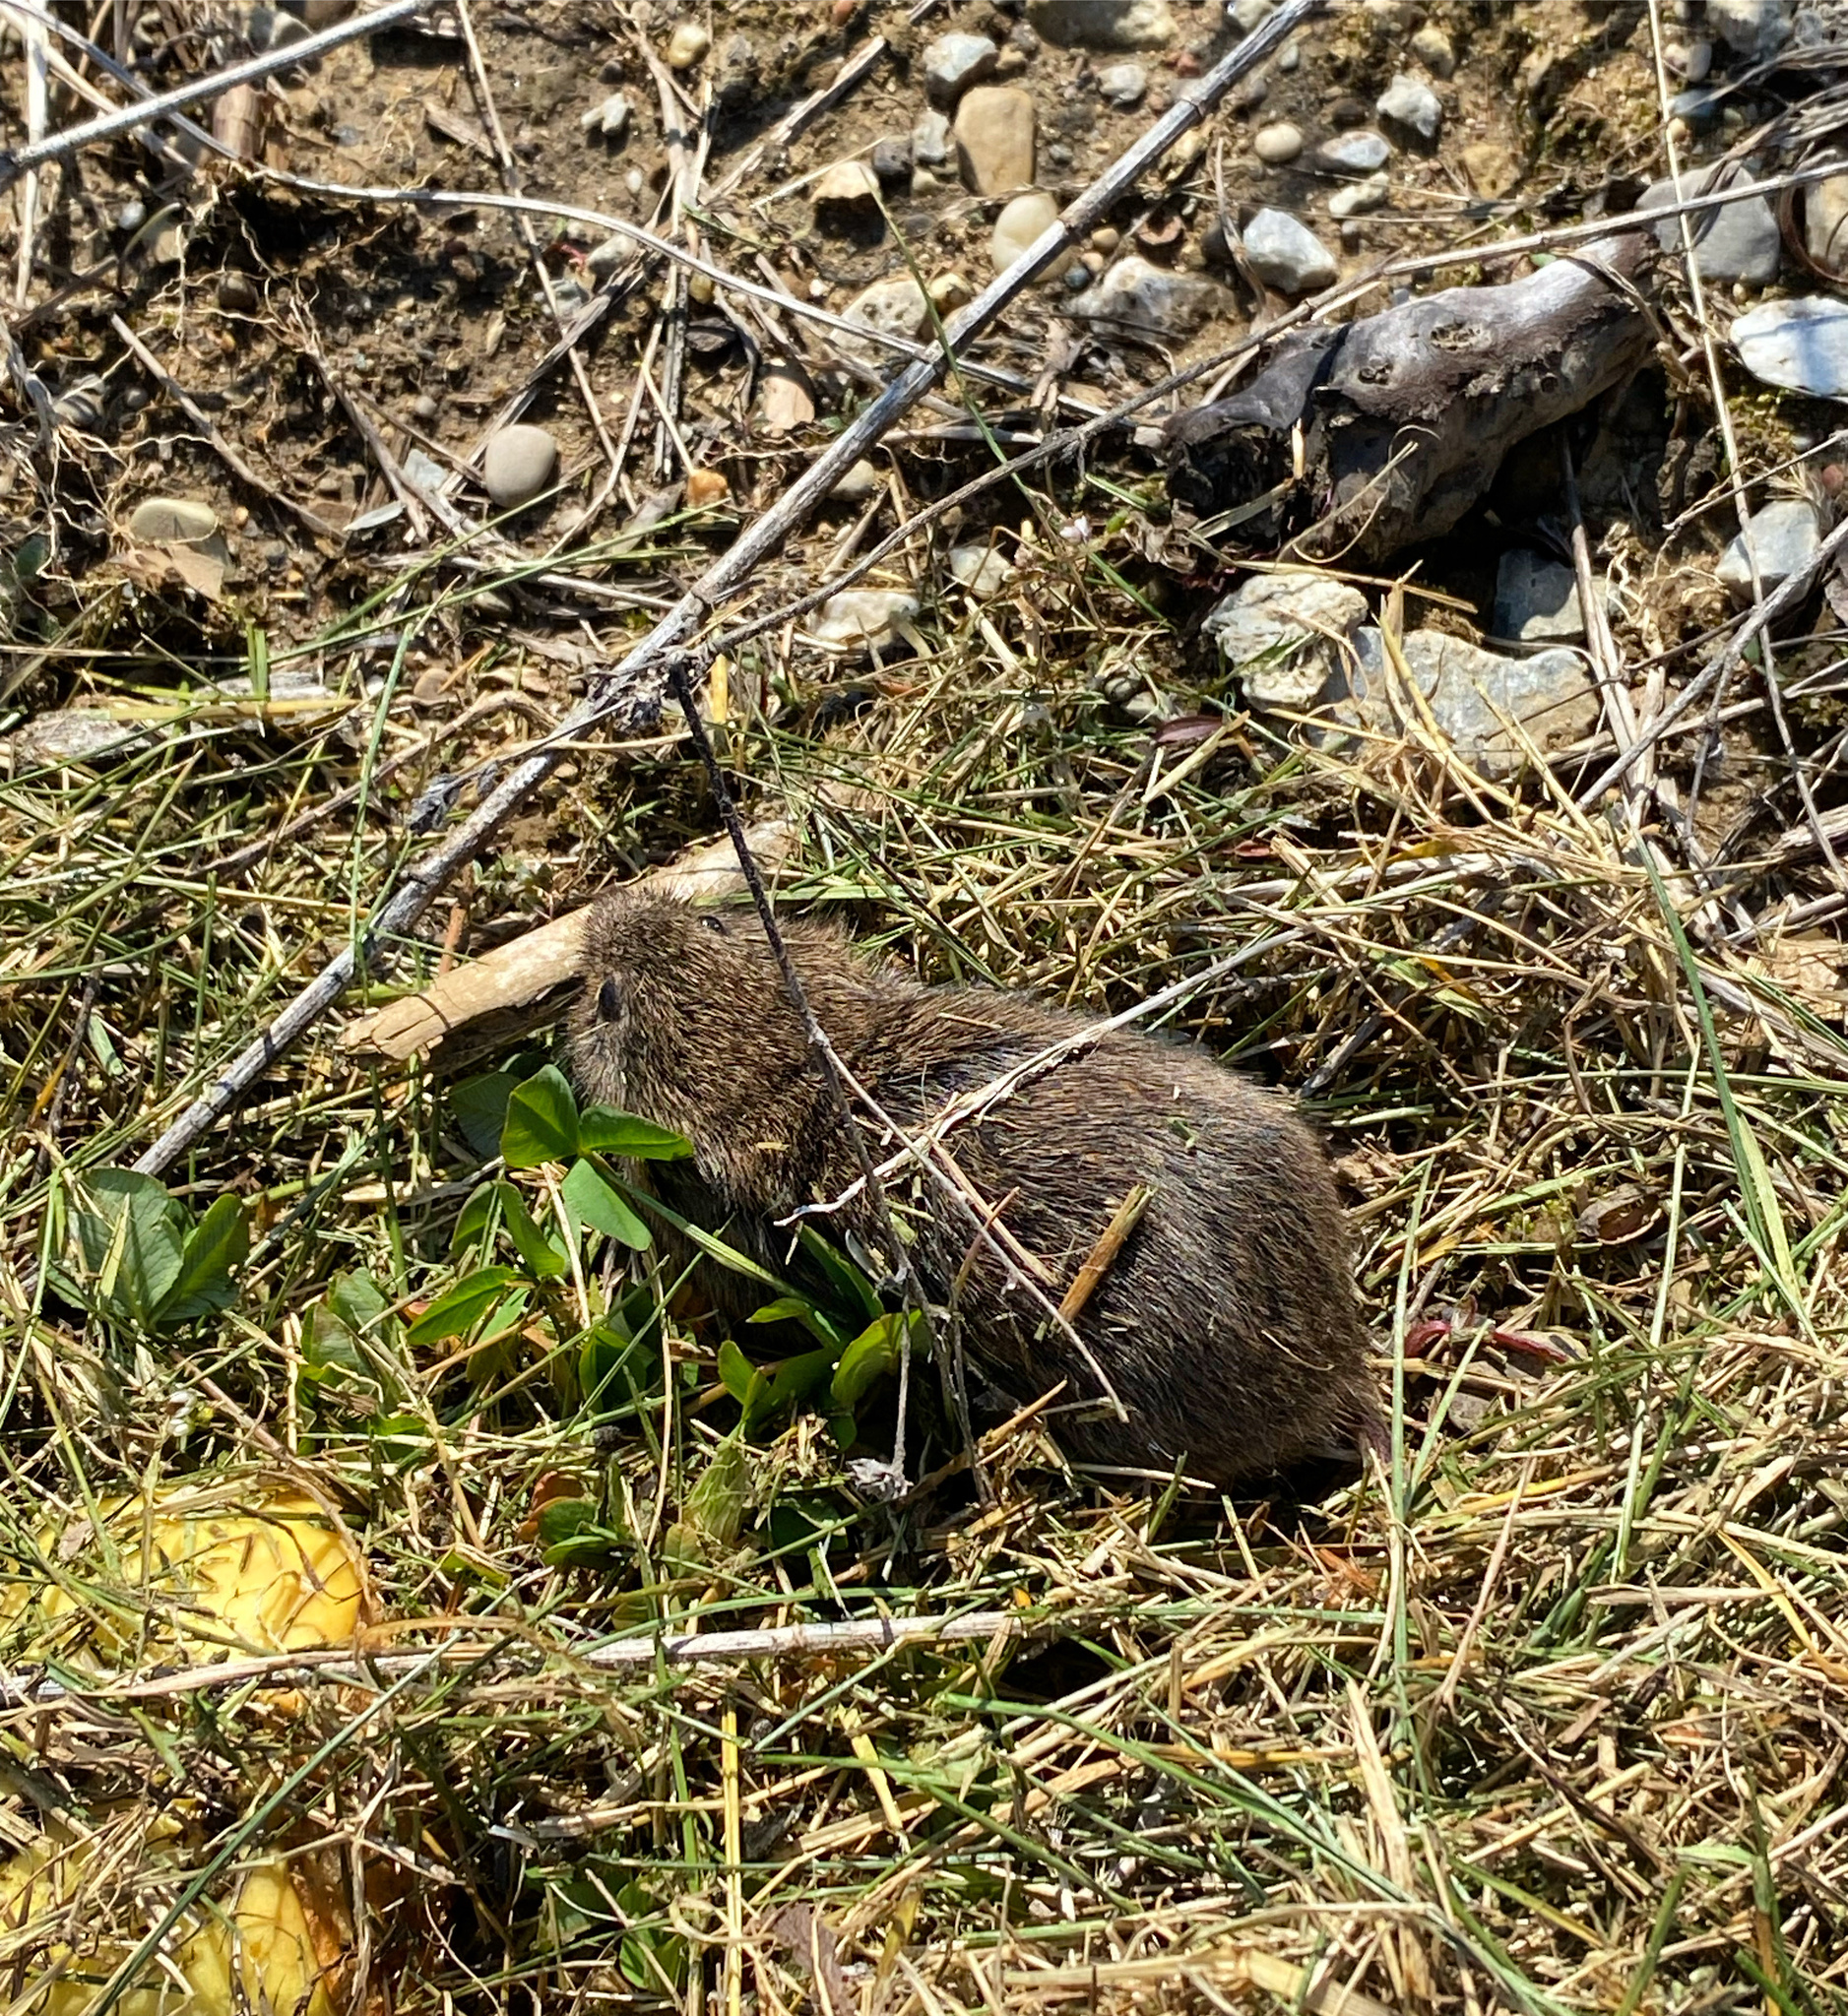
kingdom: Animalia
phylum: Chordata
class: Mammalia
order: Rodentia
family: Cricetidae
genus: Microtus
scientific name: Microtus pennsylvanicus
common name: Meadow vole
